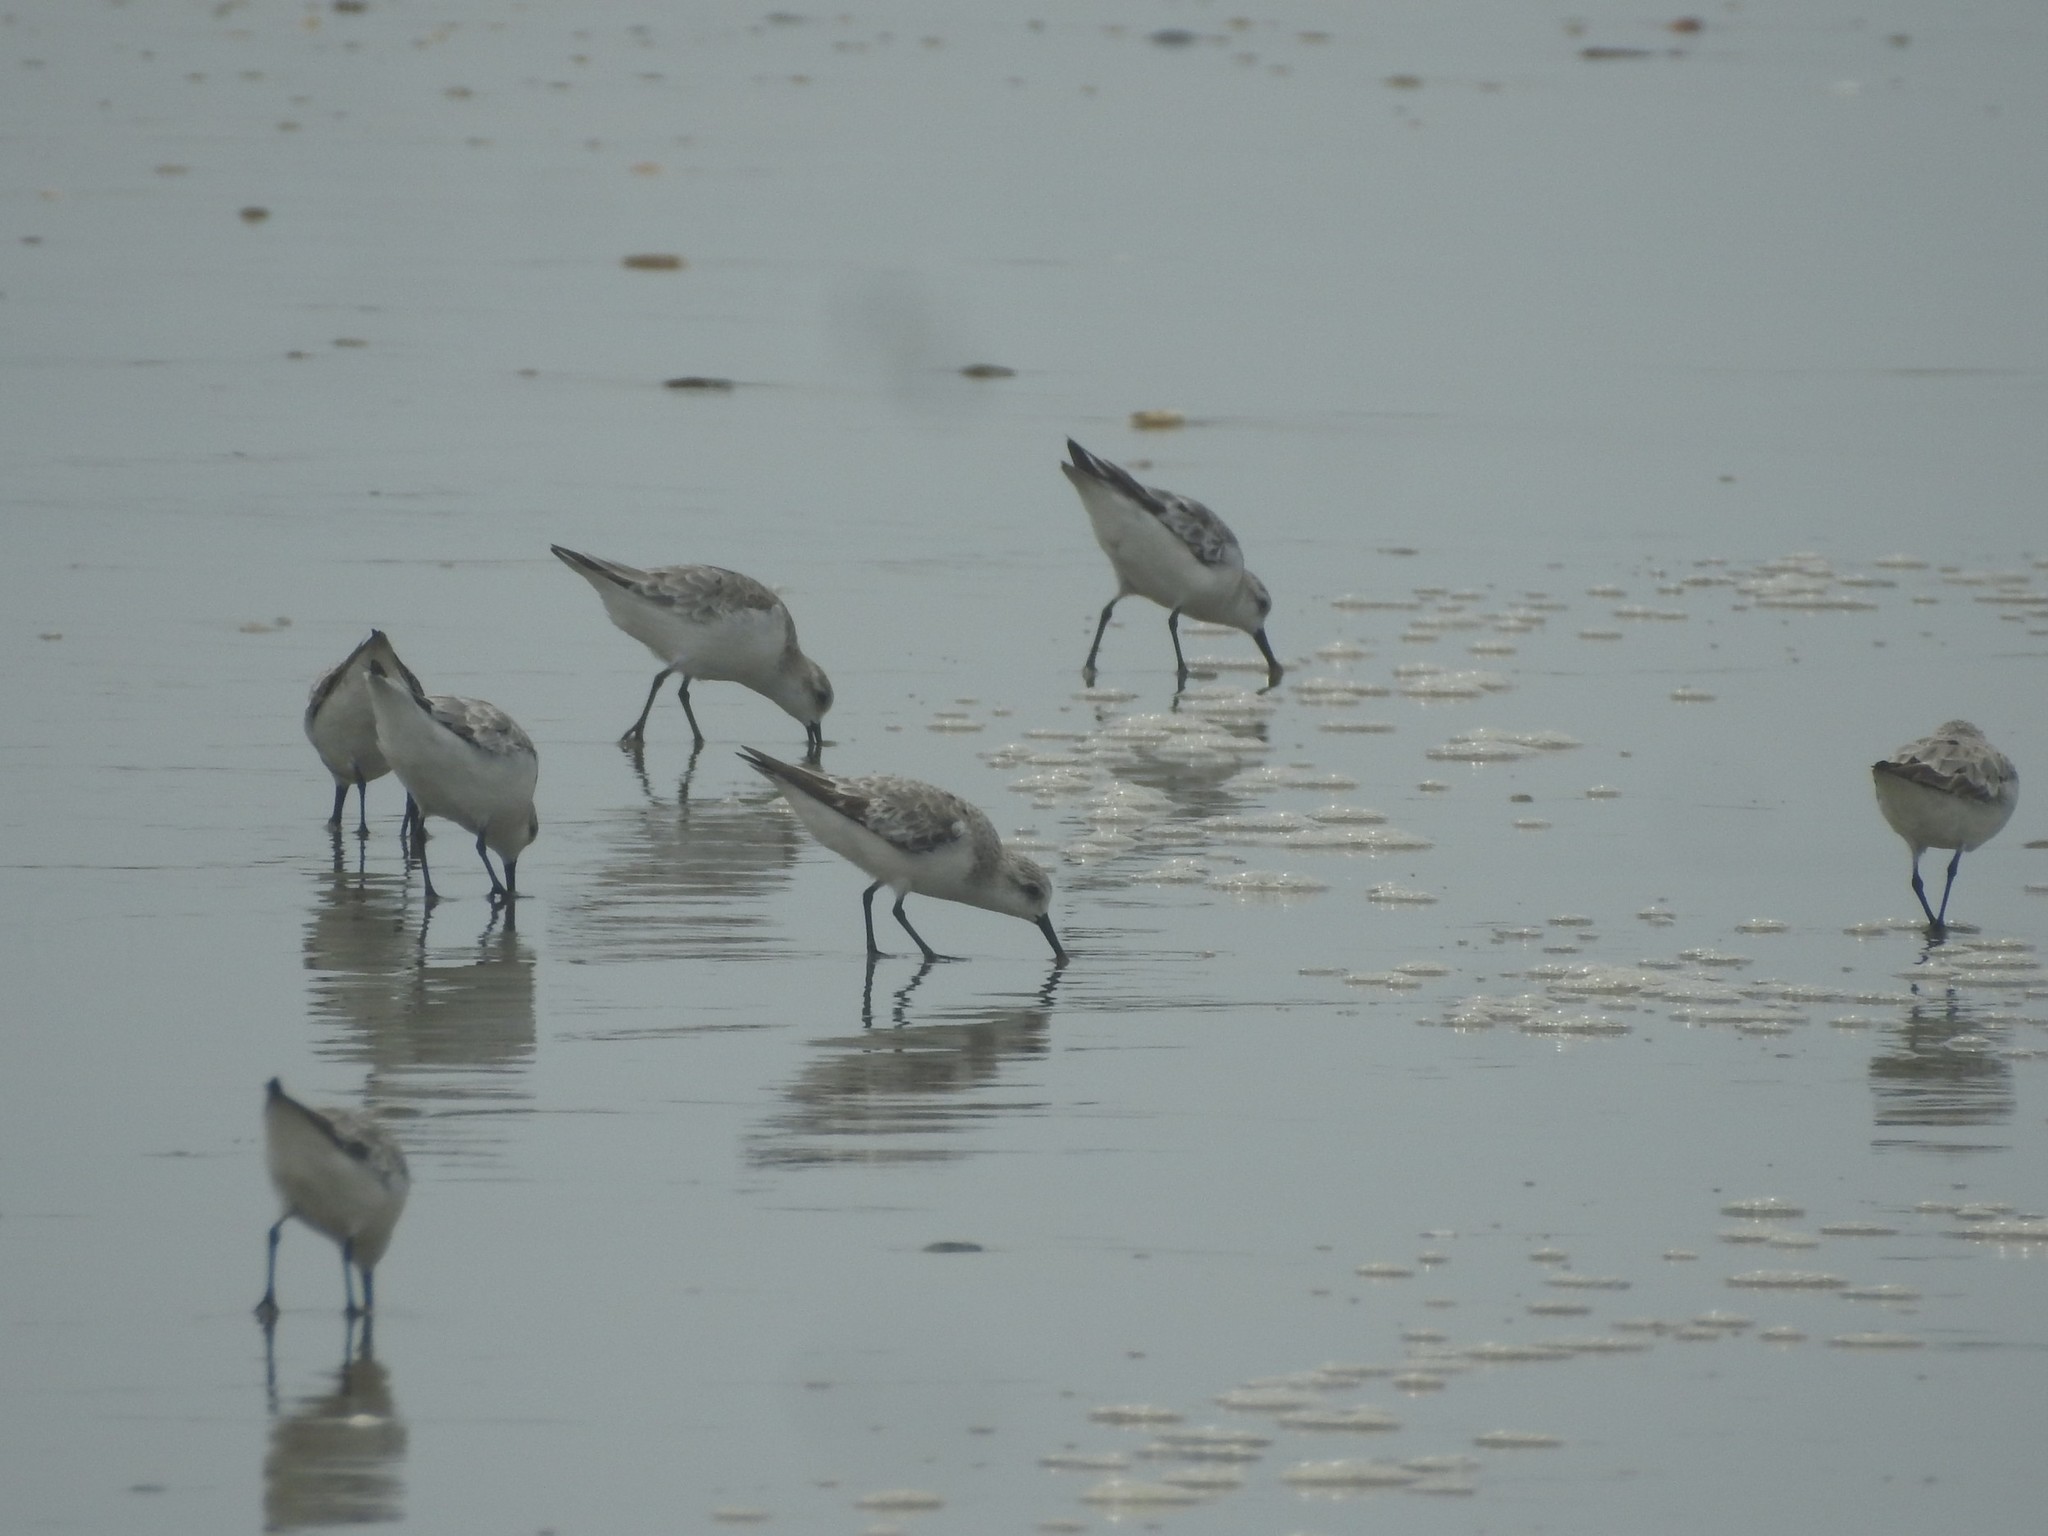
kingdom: Animalia
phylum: Chordata
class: Aves
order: Charadriiformes
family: Scolopacidae
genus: Calidris
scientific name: Calidris alba
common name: Sanderling
